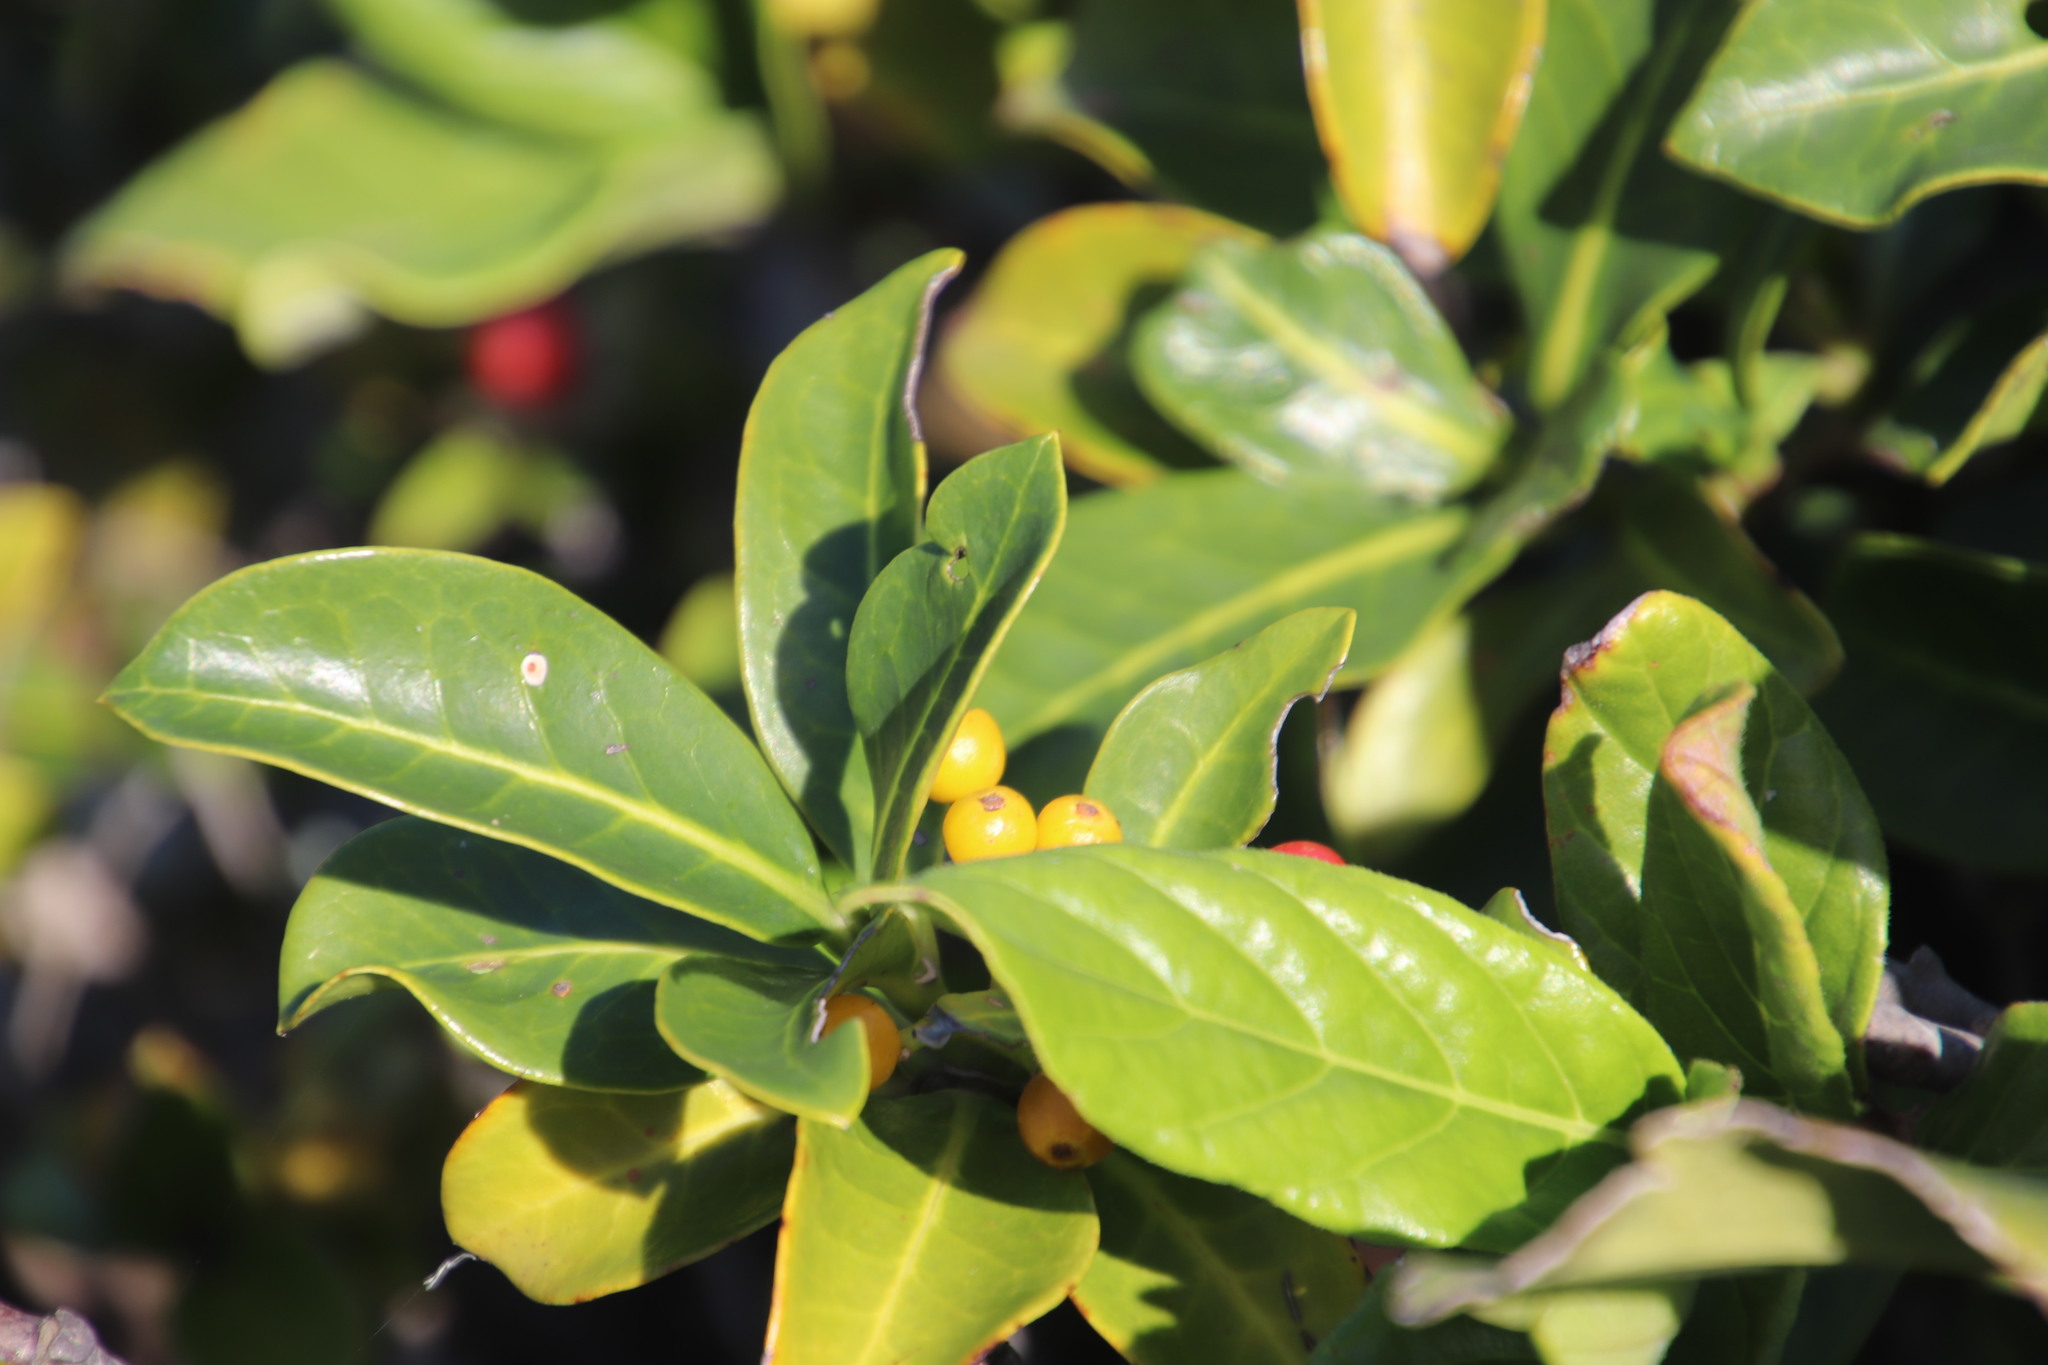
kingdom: Plantae
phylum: Tracheophyta
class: Magnoliopsida
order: Gentianales
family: Rubiaceae
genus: Psychotria
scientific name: Psychotria capensis
